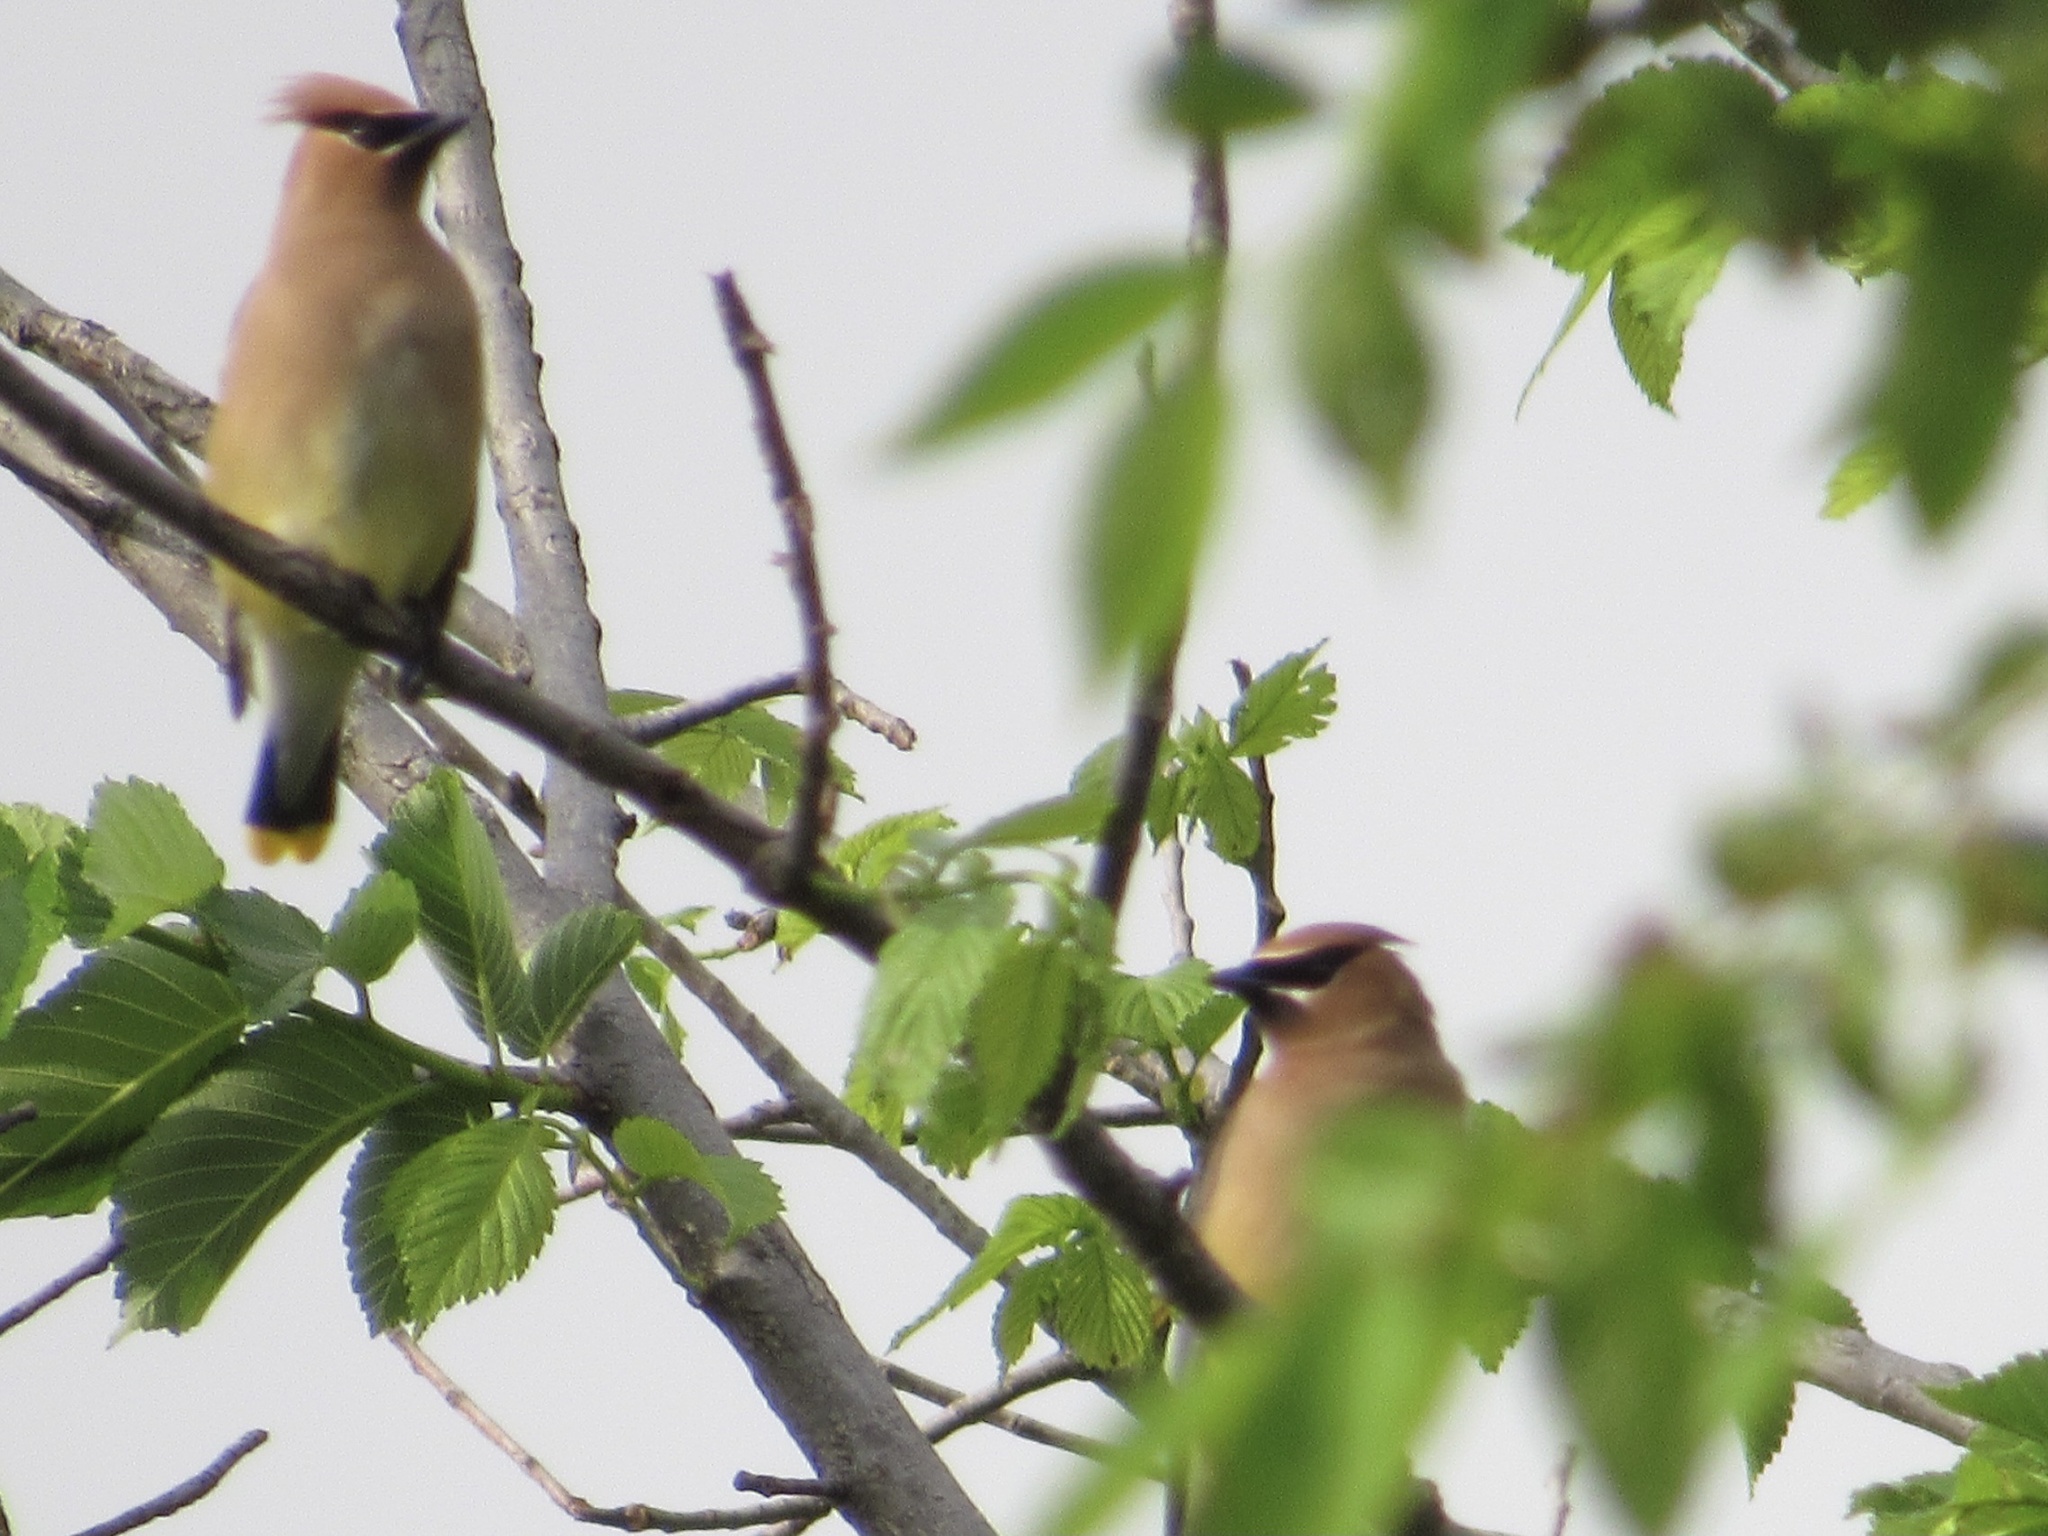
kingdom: Animalia
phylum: Chordata
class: Aves
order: Passeriformes
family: Bombycillidae
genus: Bombycilla
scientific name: Bombycilla cedrorum
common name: Cedar waxwing
